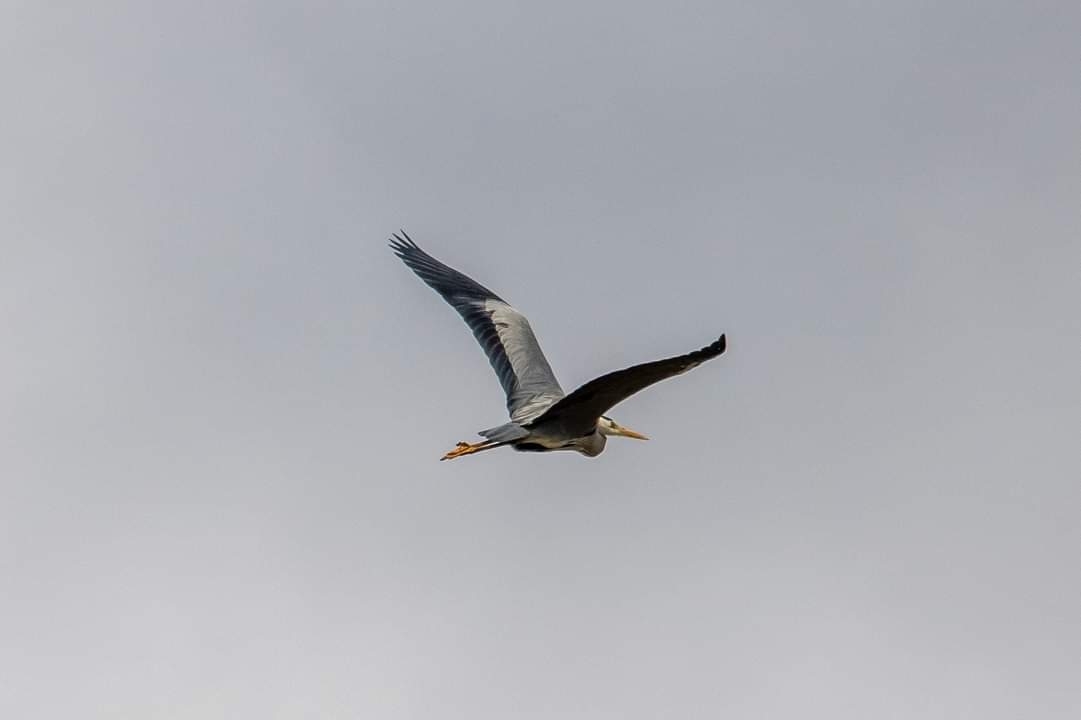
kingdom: Animalia
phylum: Chordata
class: Aves
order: Pelecaniformes
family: Ardeidae
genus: Ardea
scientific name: Ardea cinerea
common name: Grey heron
